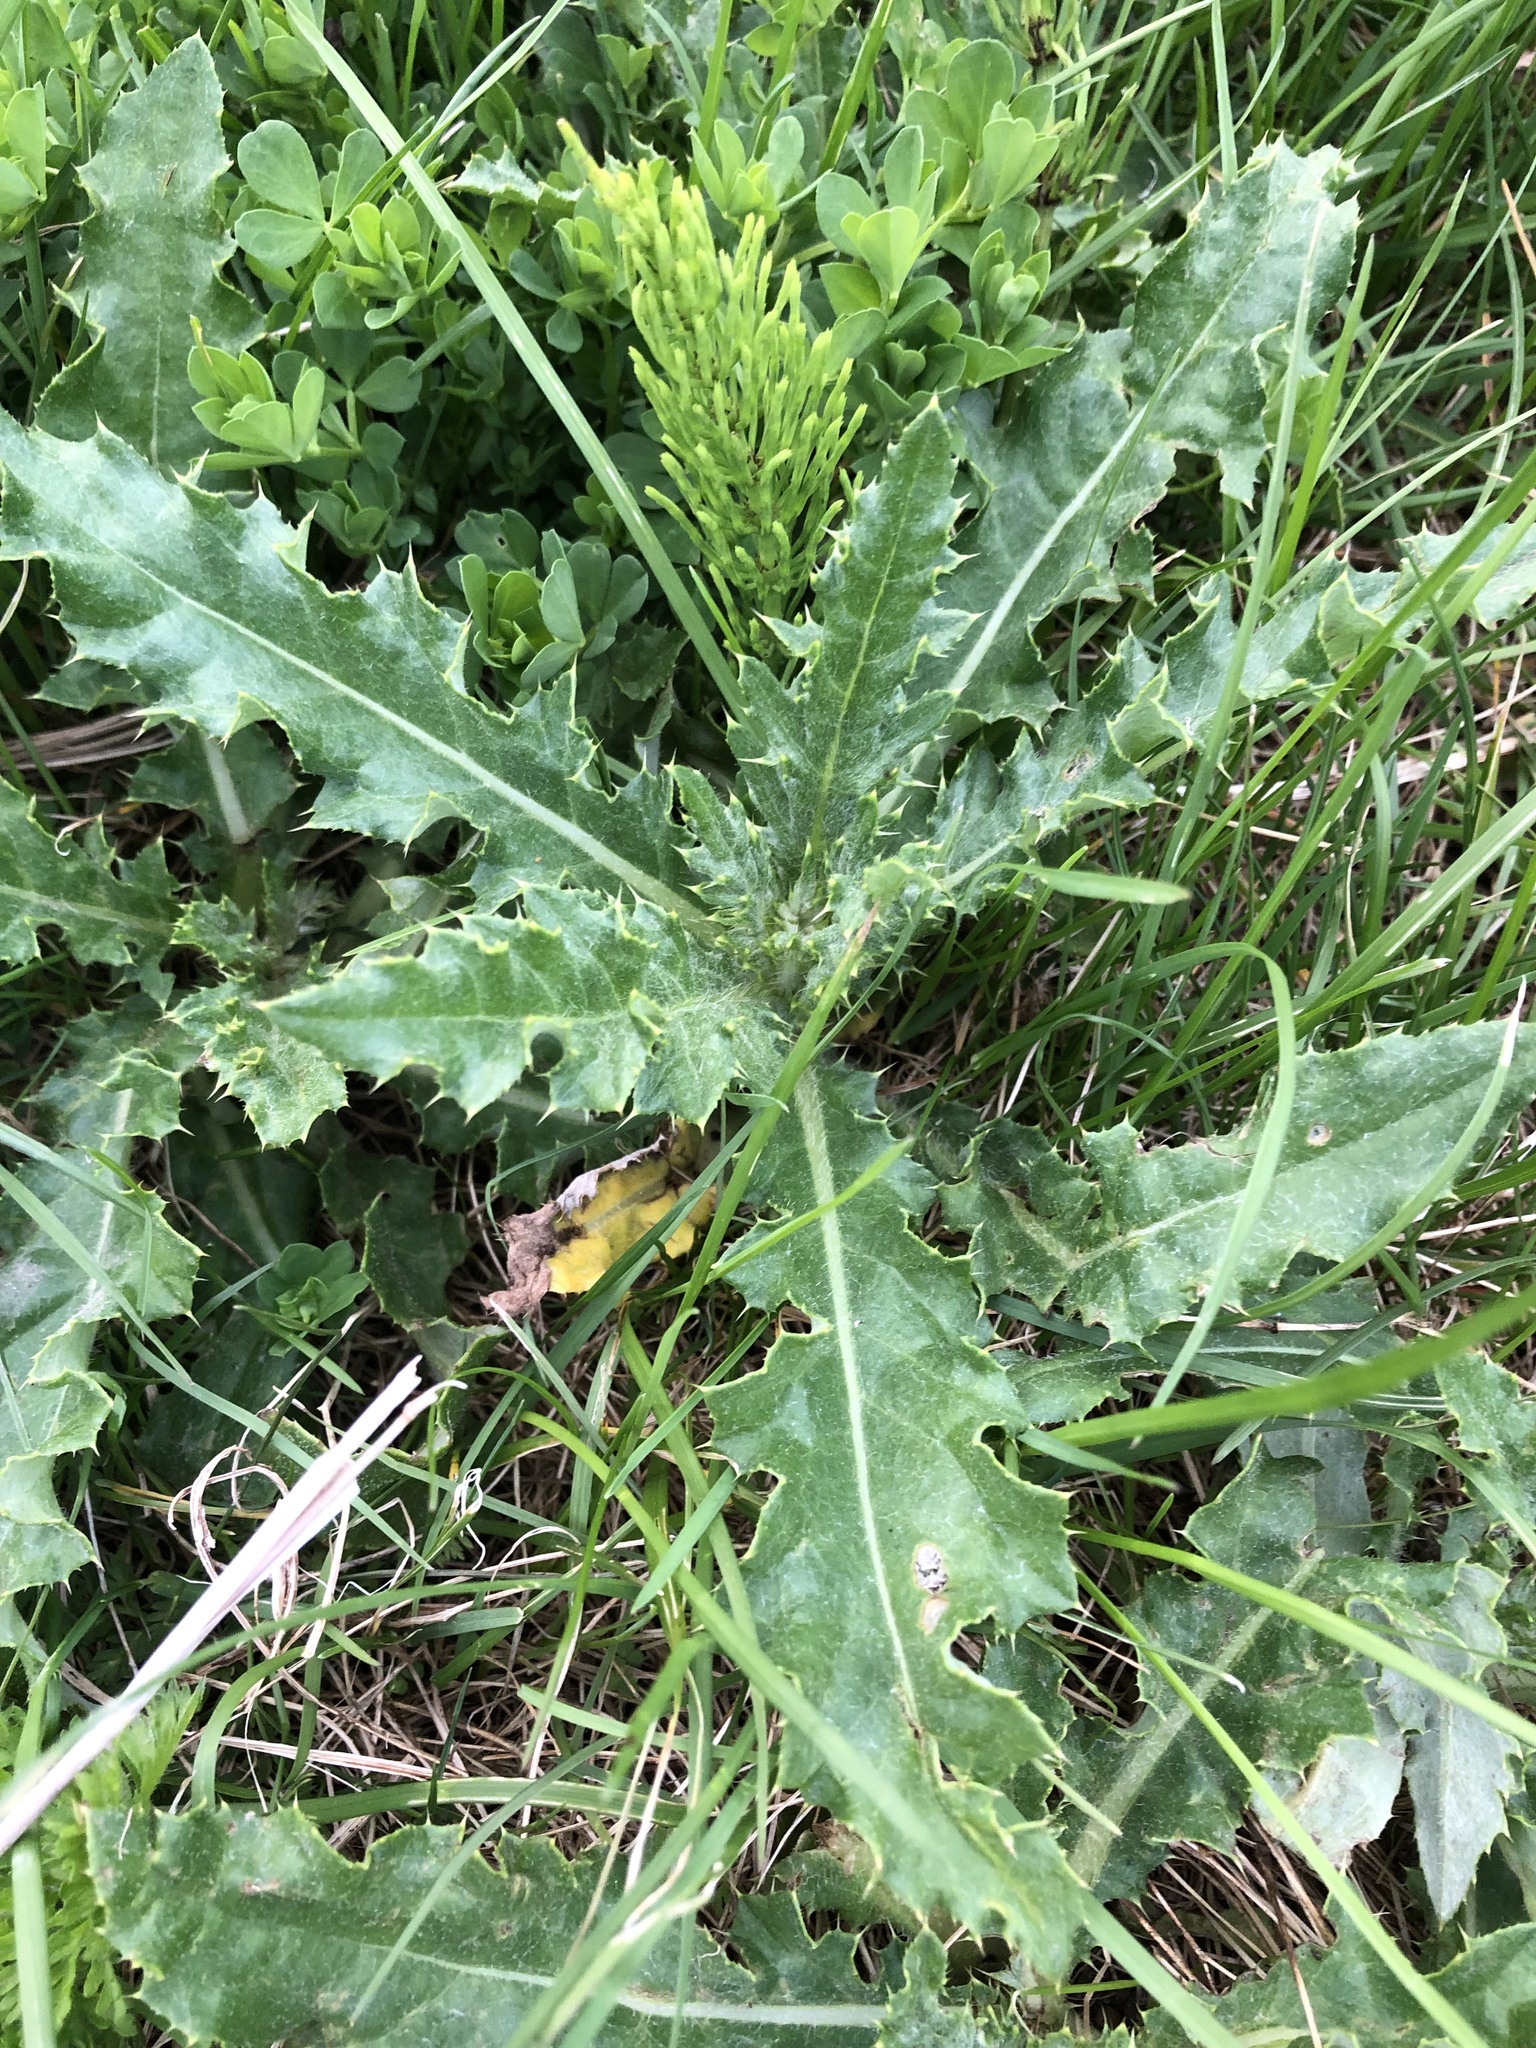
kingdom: Plantae
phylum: Tracheophyta
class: Magnoliopsida
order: Asterales
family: Asteraceae
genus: Cirsium
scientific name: Cirsium arvense
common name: Creeping thistle
